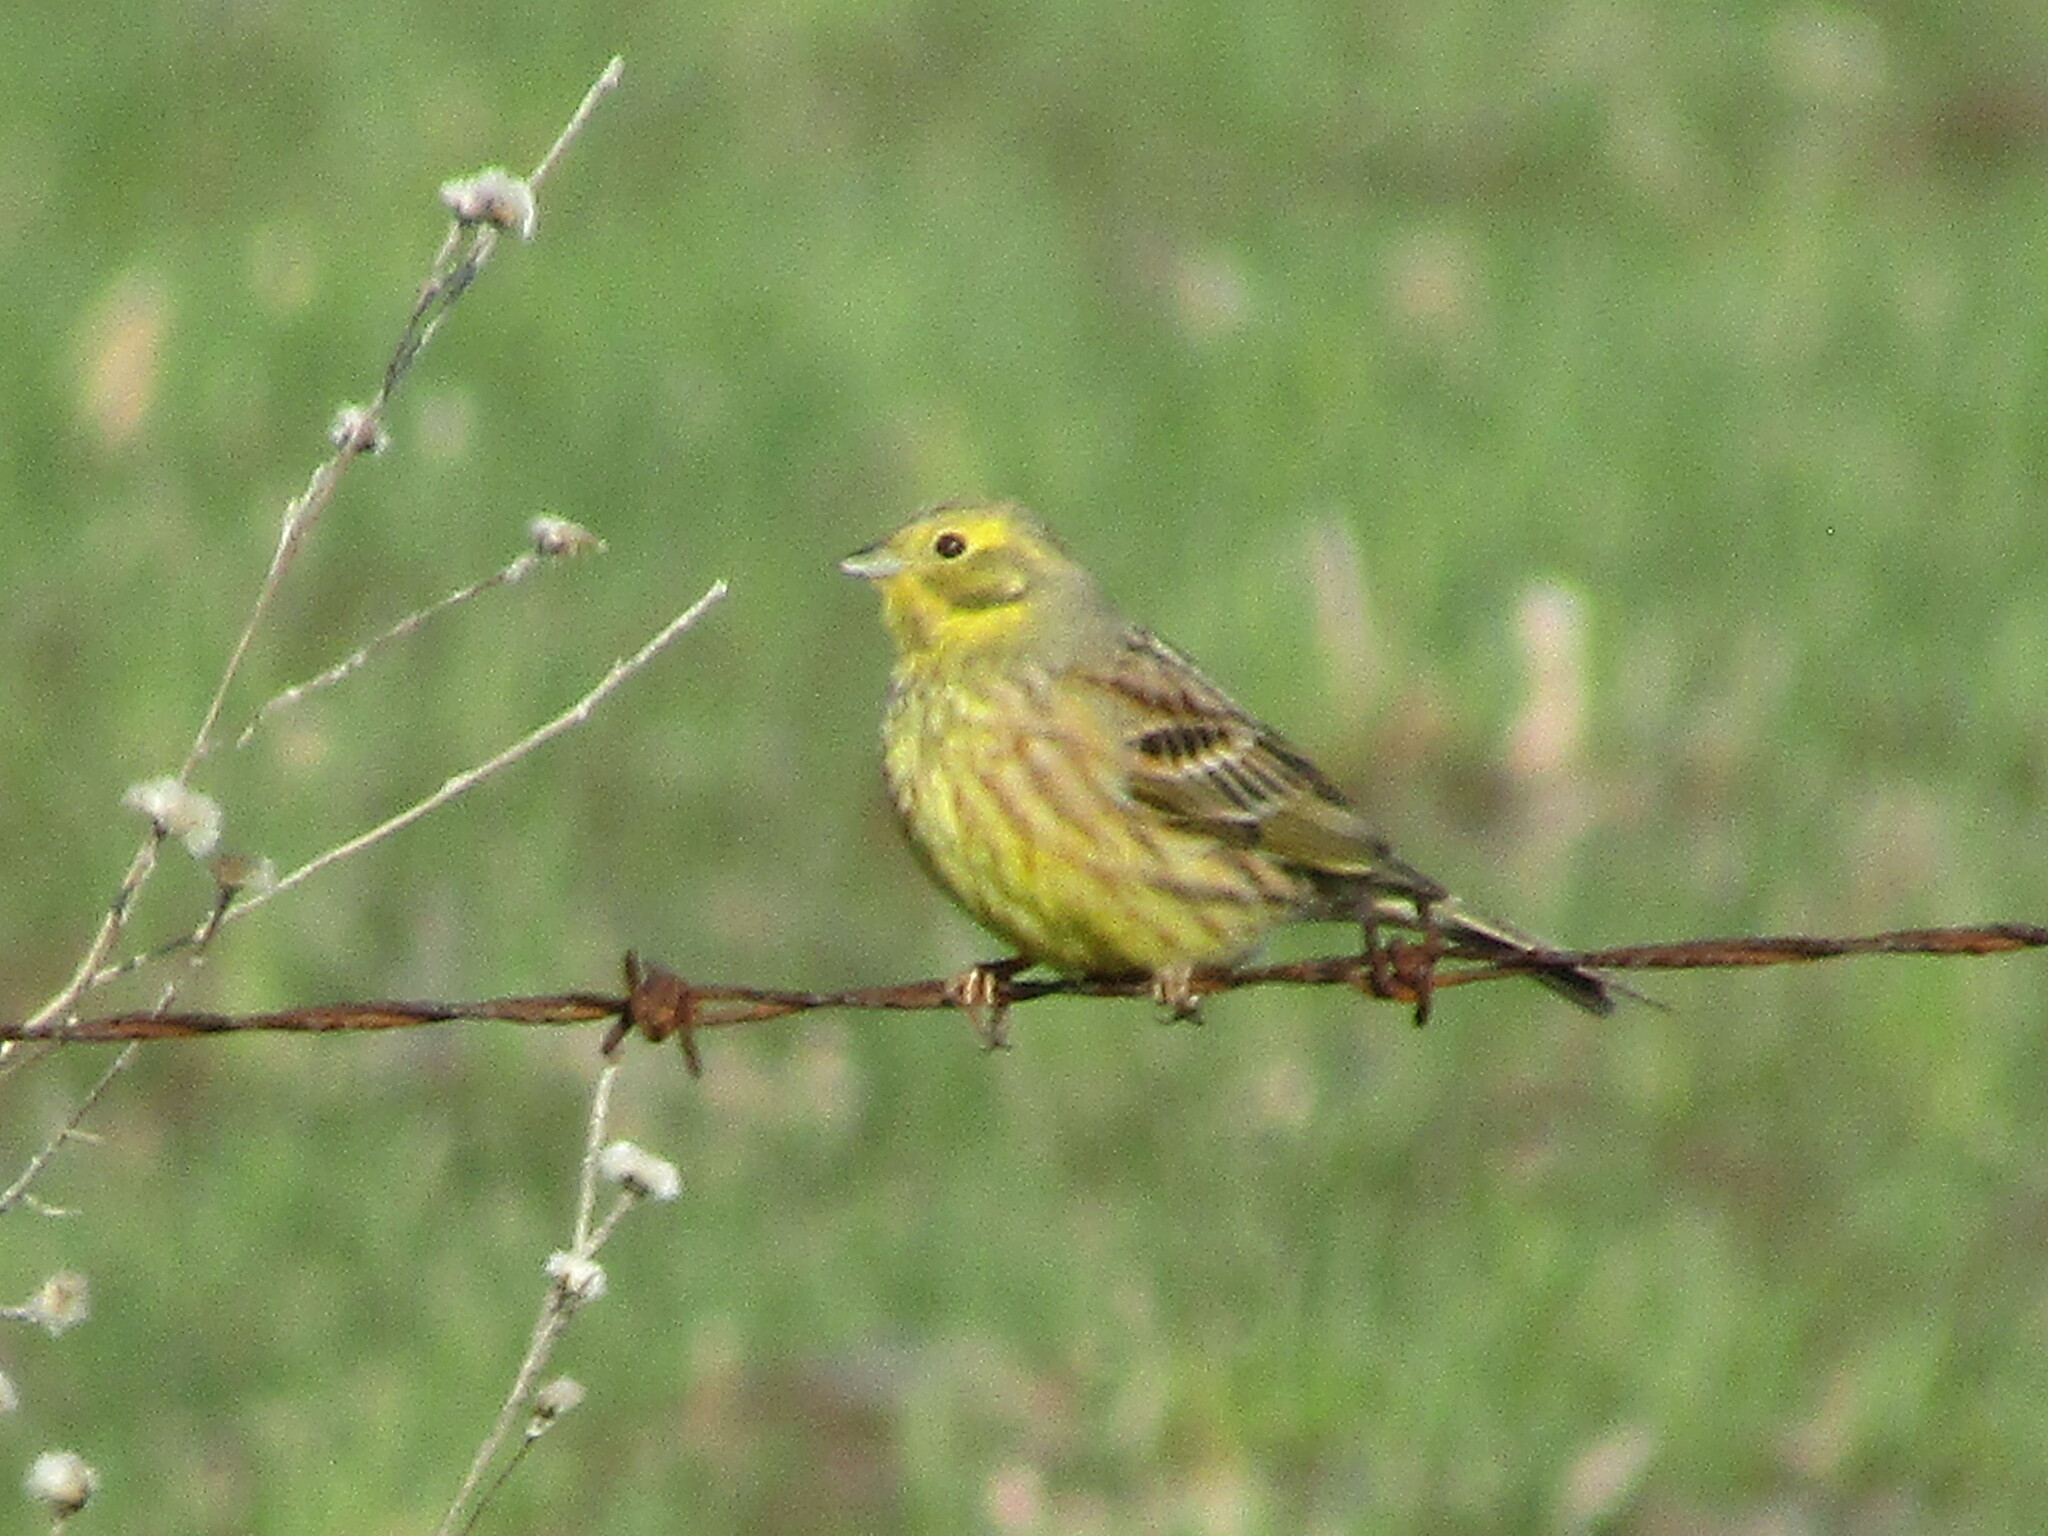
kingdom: Animalia
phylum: Chordata
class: Aves
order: Passeriformes
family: Emberizidae
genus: Emberiza
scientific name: Emberiza citrinella
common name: Yellowhammer
